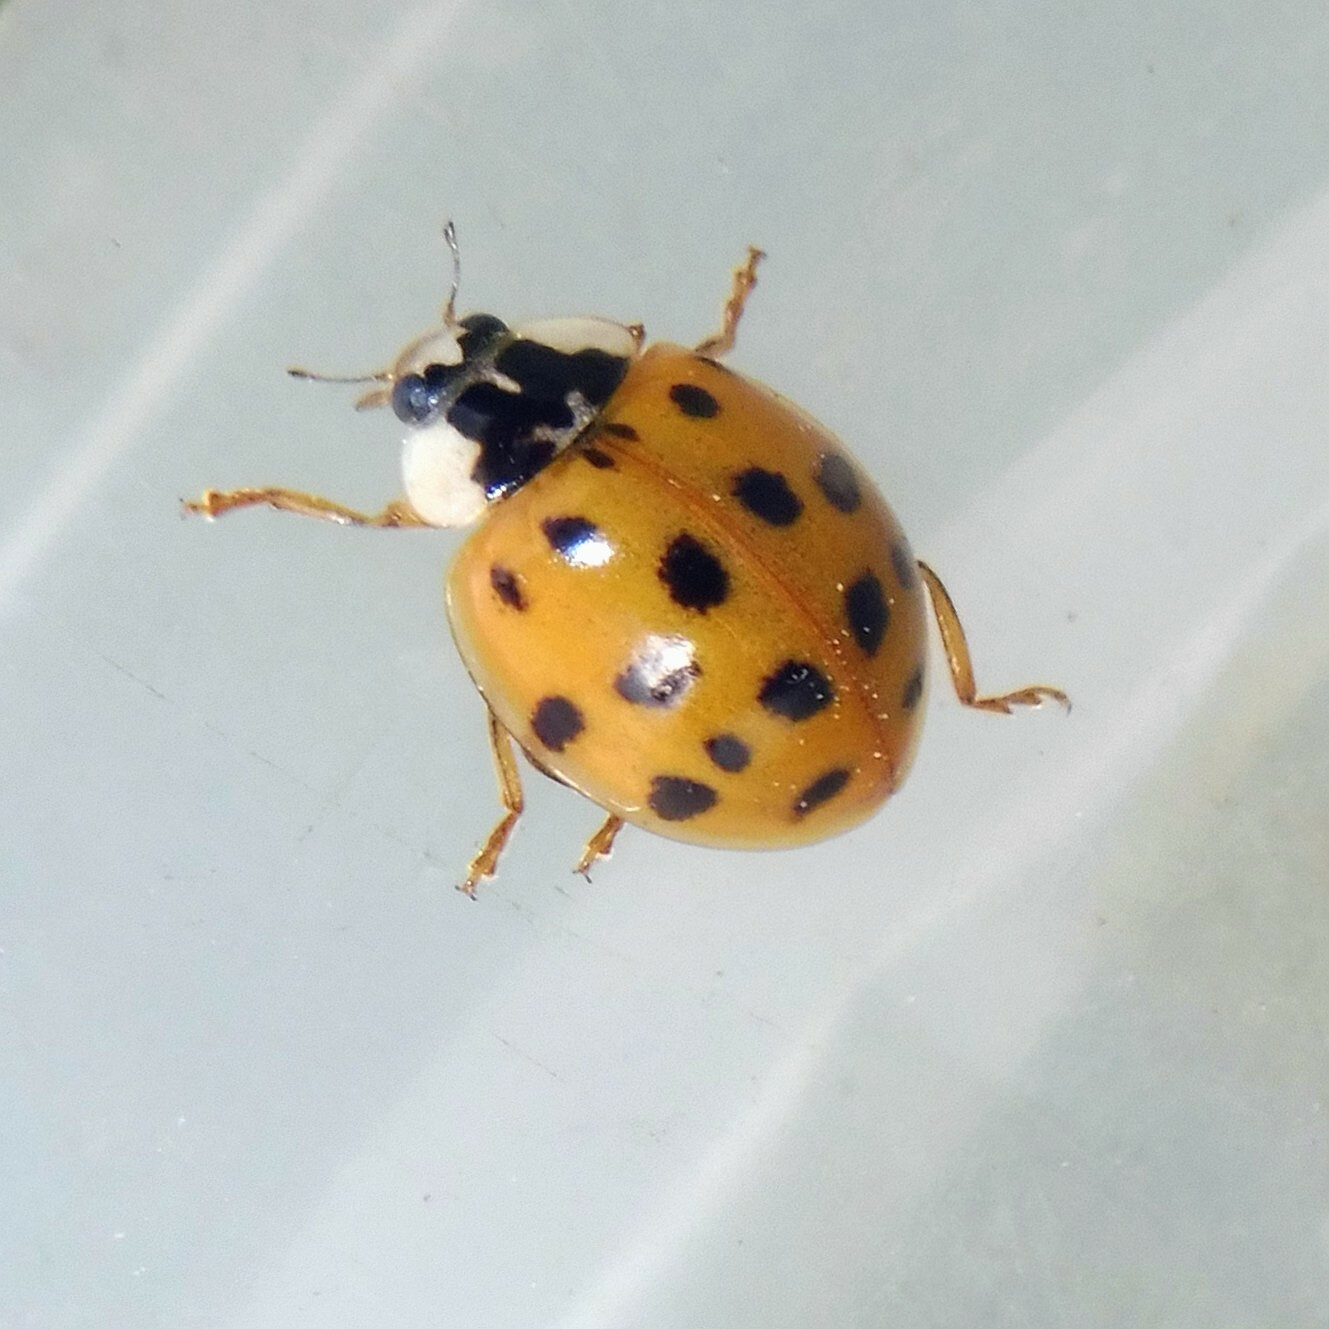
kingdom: Animalia
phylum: Arthropoda
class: Insecta
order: Coleoptera
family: Coccinellidae
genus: Harmonia
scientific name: Harmonia axyridis
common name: Harlequin ladybird
